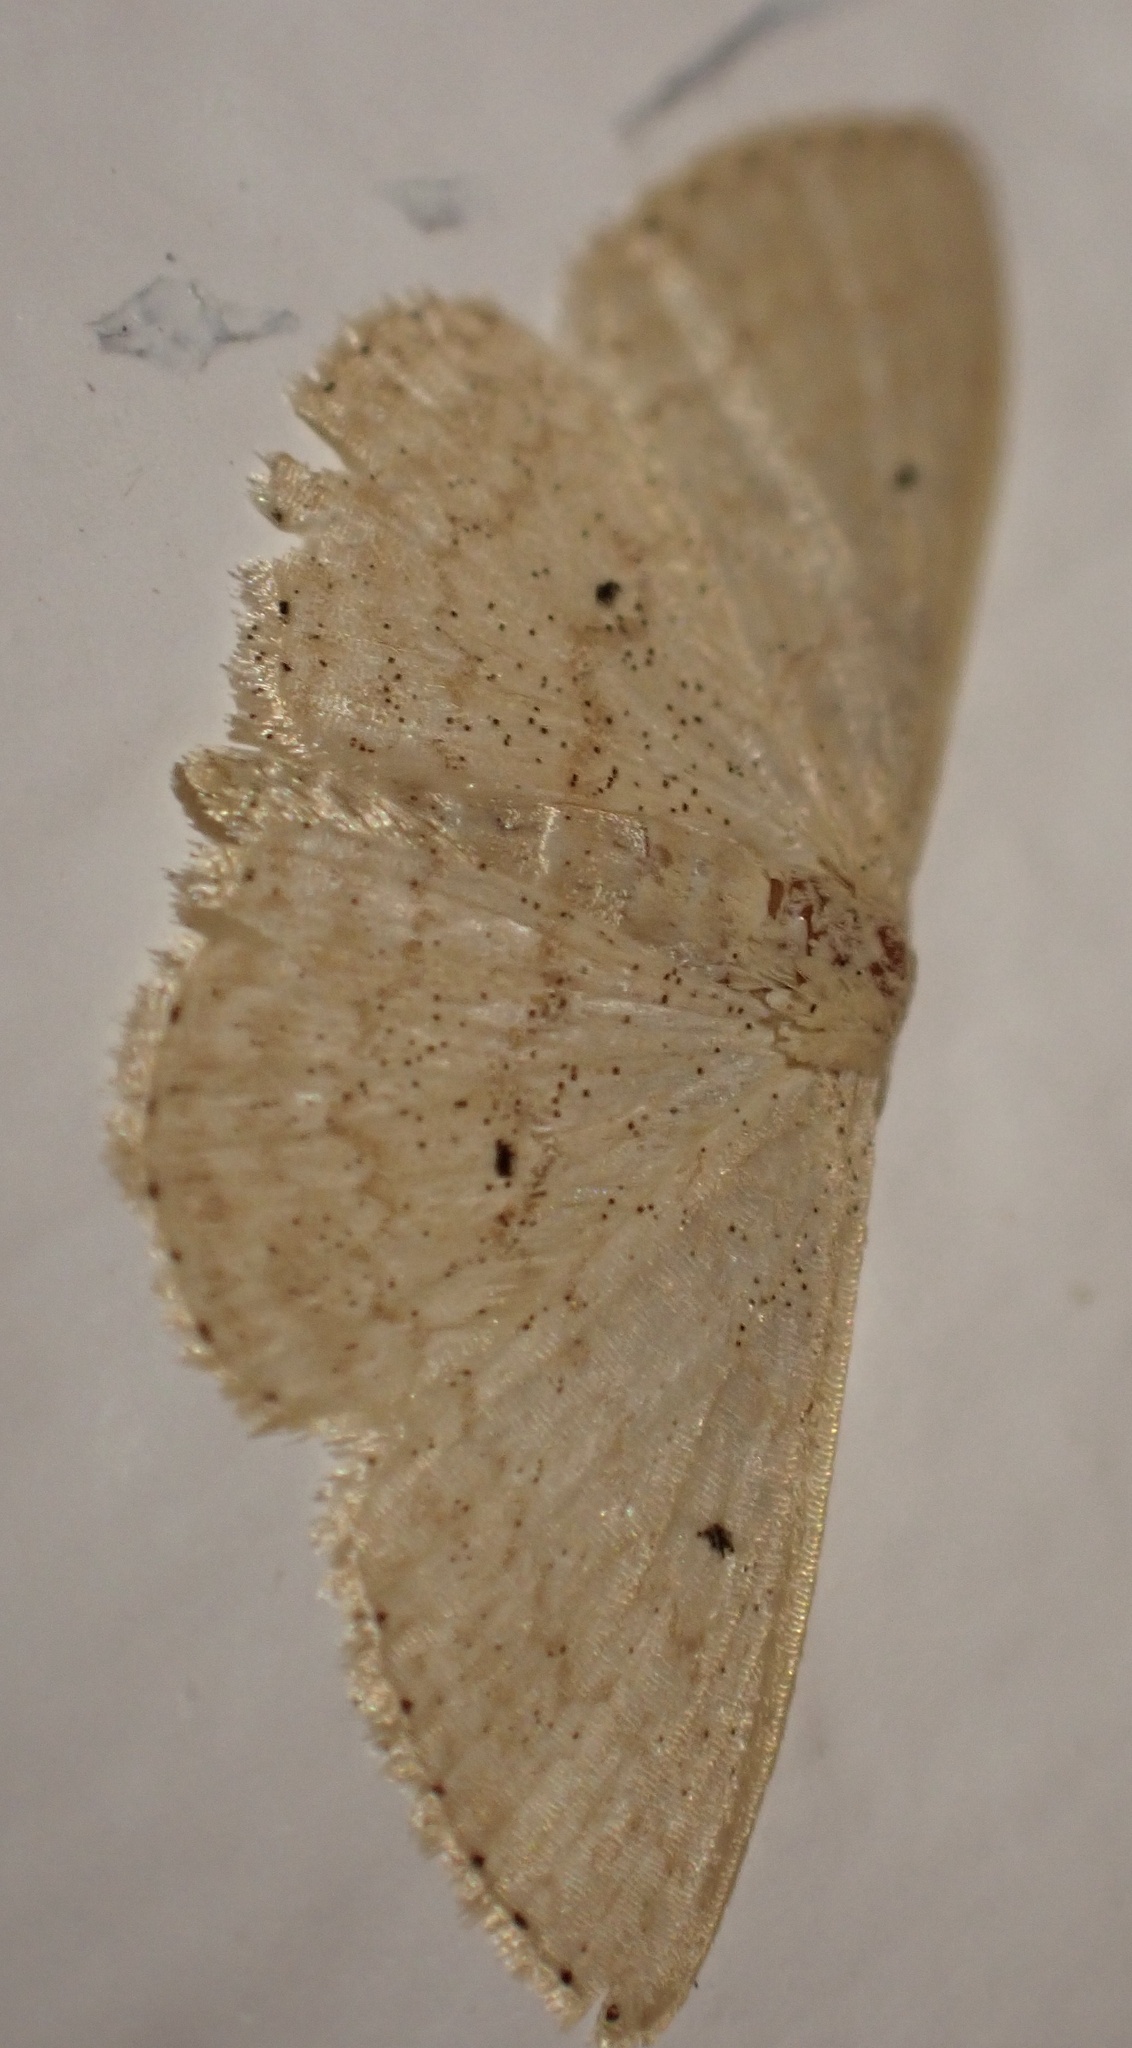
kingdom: Animalia
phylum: Arthropoda
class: Insecta
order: Lepidoptera
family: Geometridae
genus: Scopula
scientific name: Scopula minorata
